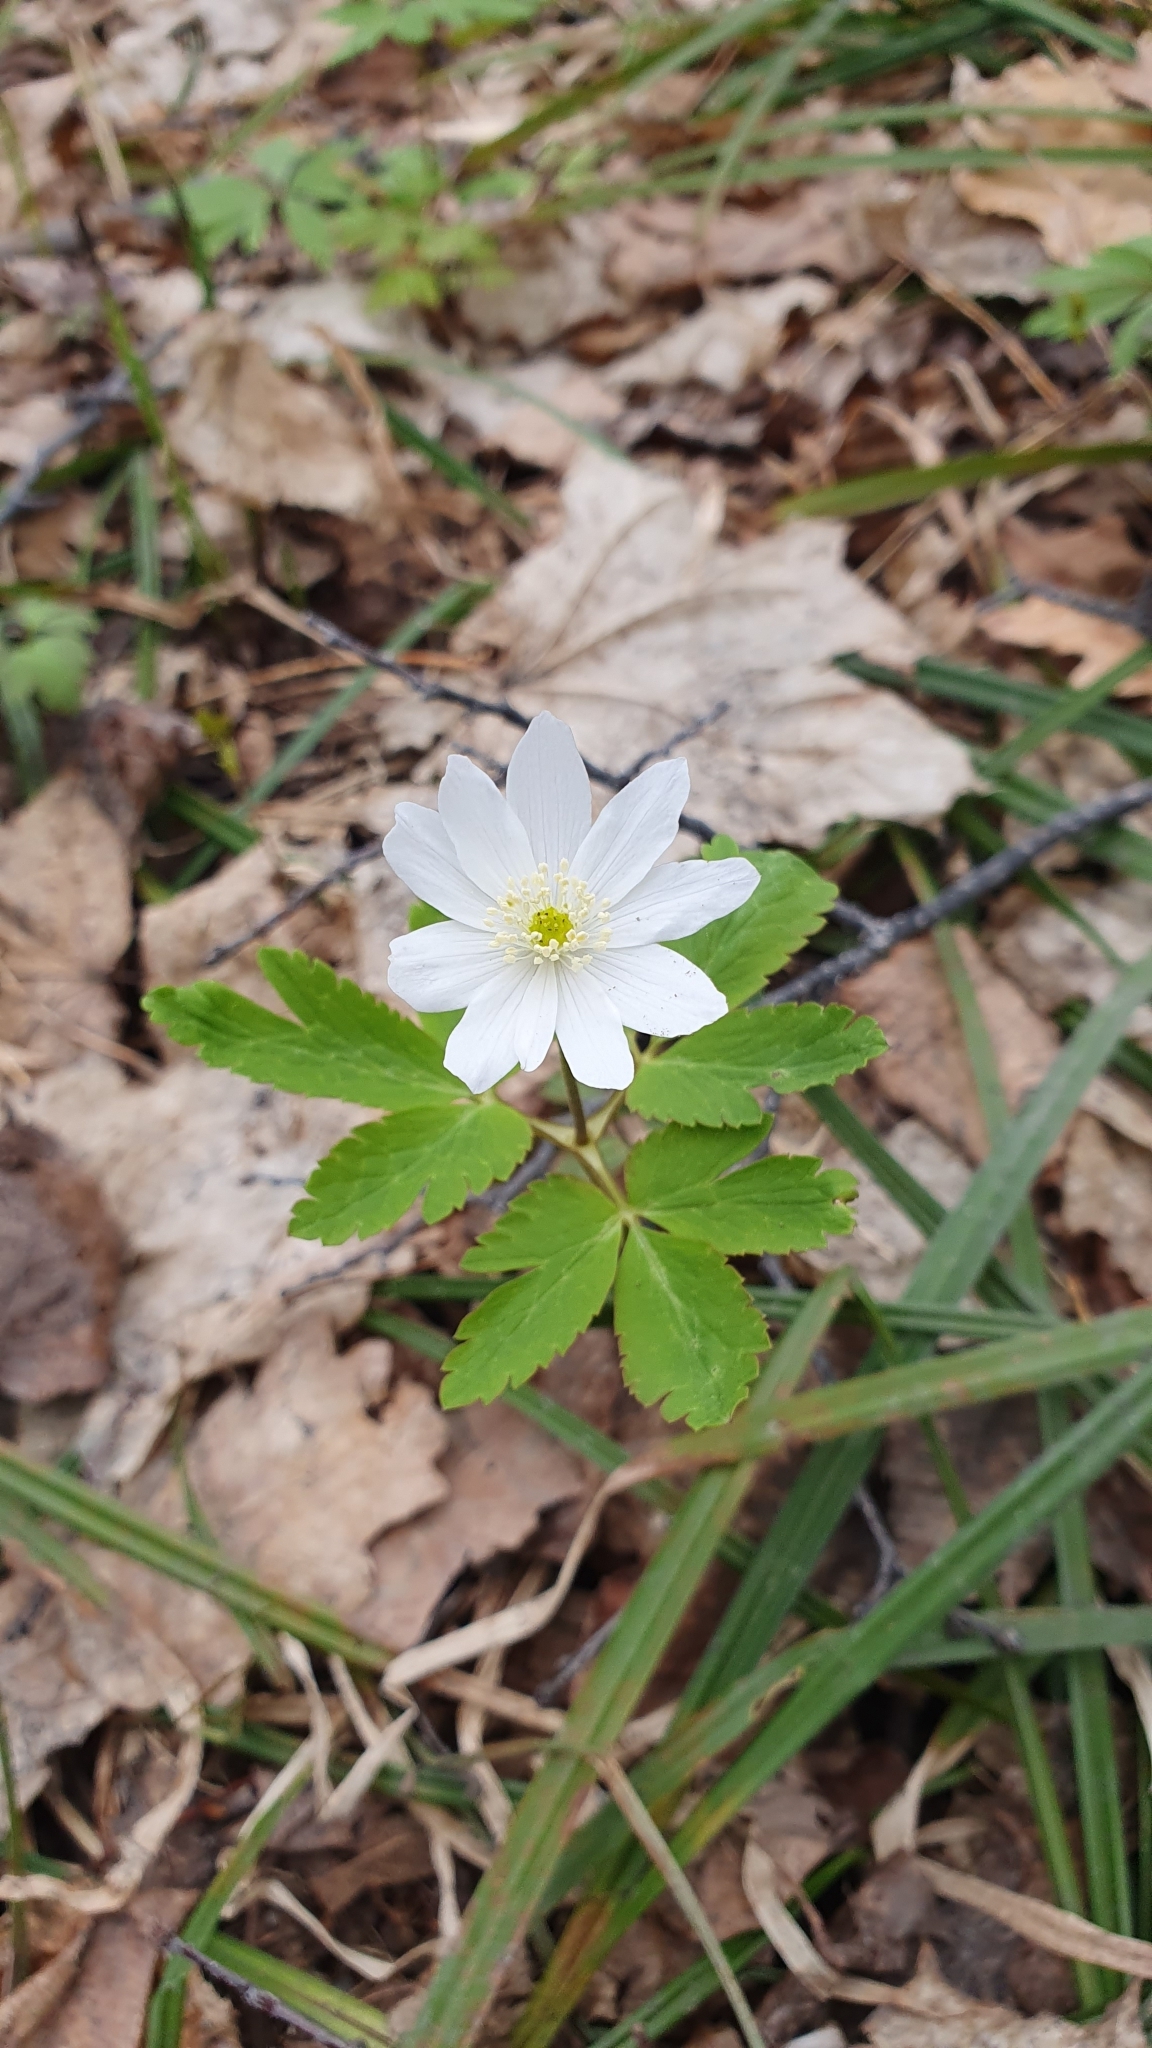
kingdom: Plantae
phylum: Tracheophyta
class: Magnoliopsida
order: Ranunculales
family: Ranunculaceae
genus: Anemone
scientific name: Anemone altaica
